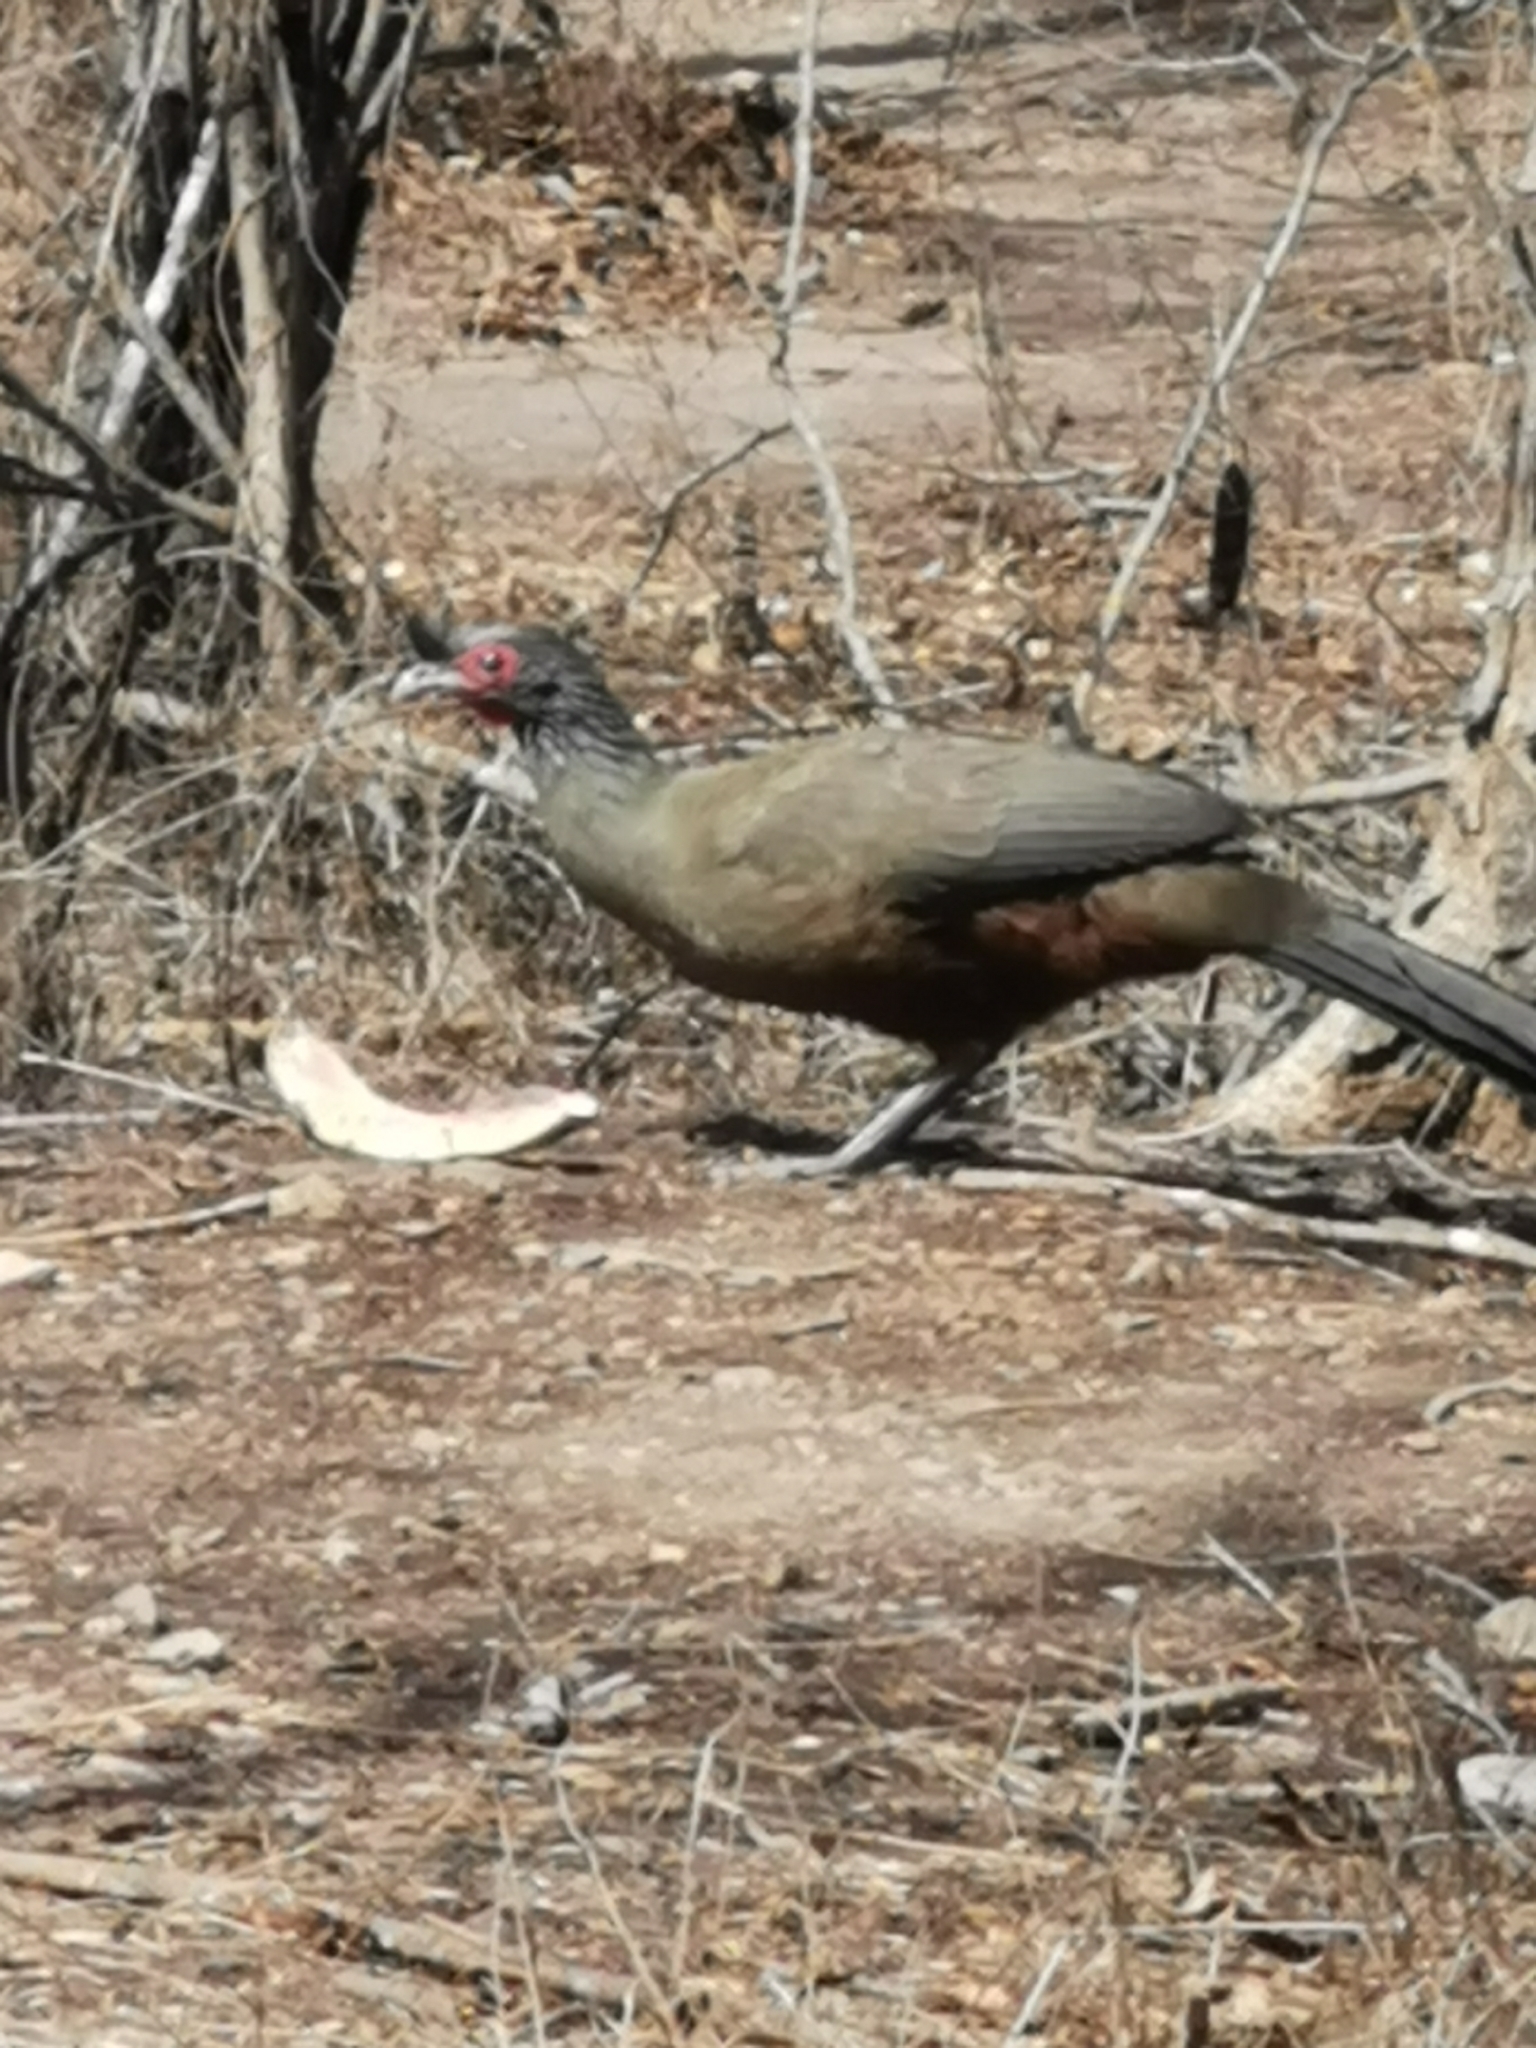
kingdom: Animalia
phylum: Chordata
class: Aves
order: Galliformes
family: Cracidae
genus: Ortalis
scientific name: Ortalis wagleri
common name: Rufous-bellied chachalaca
